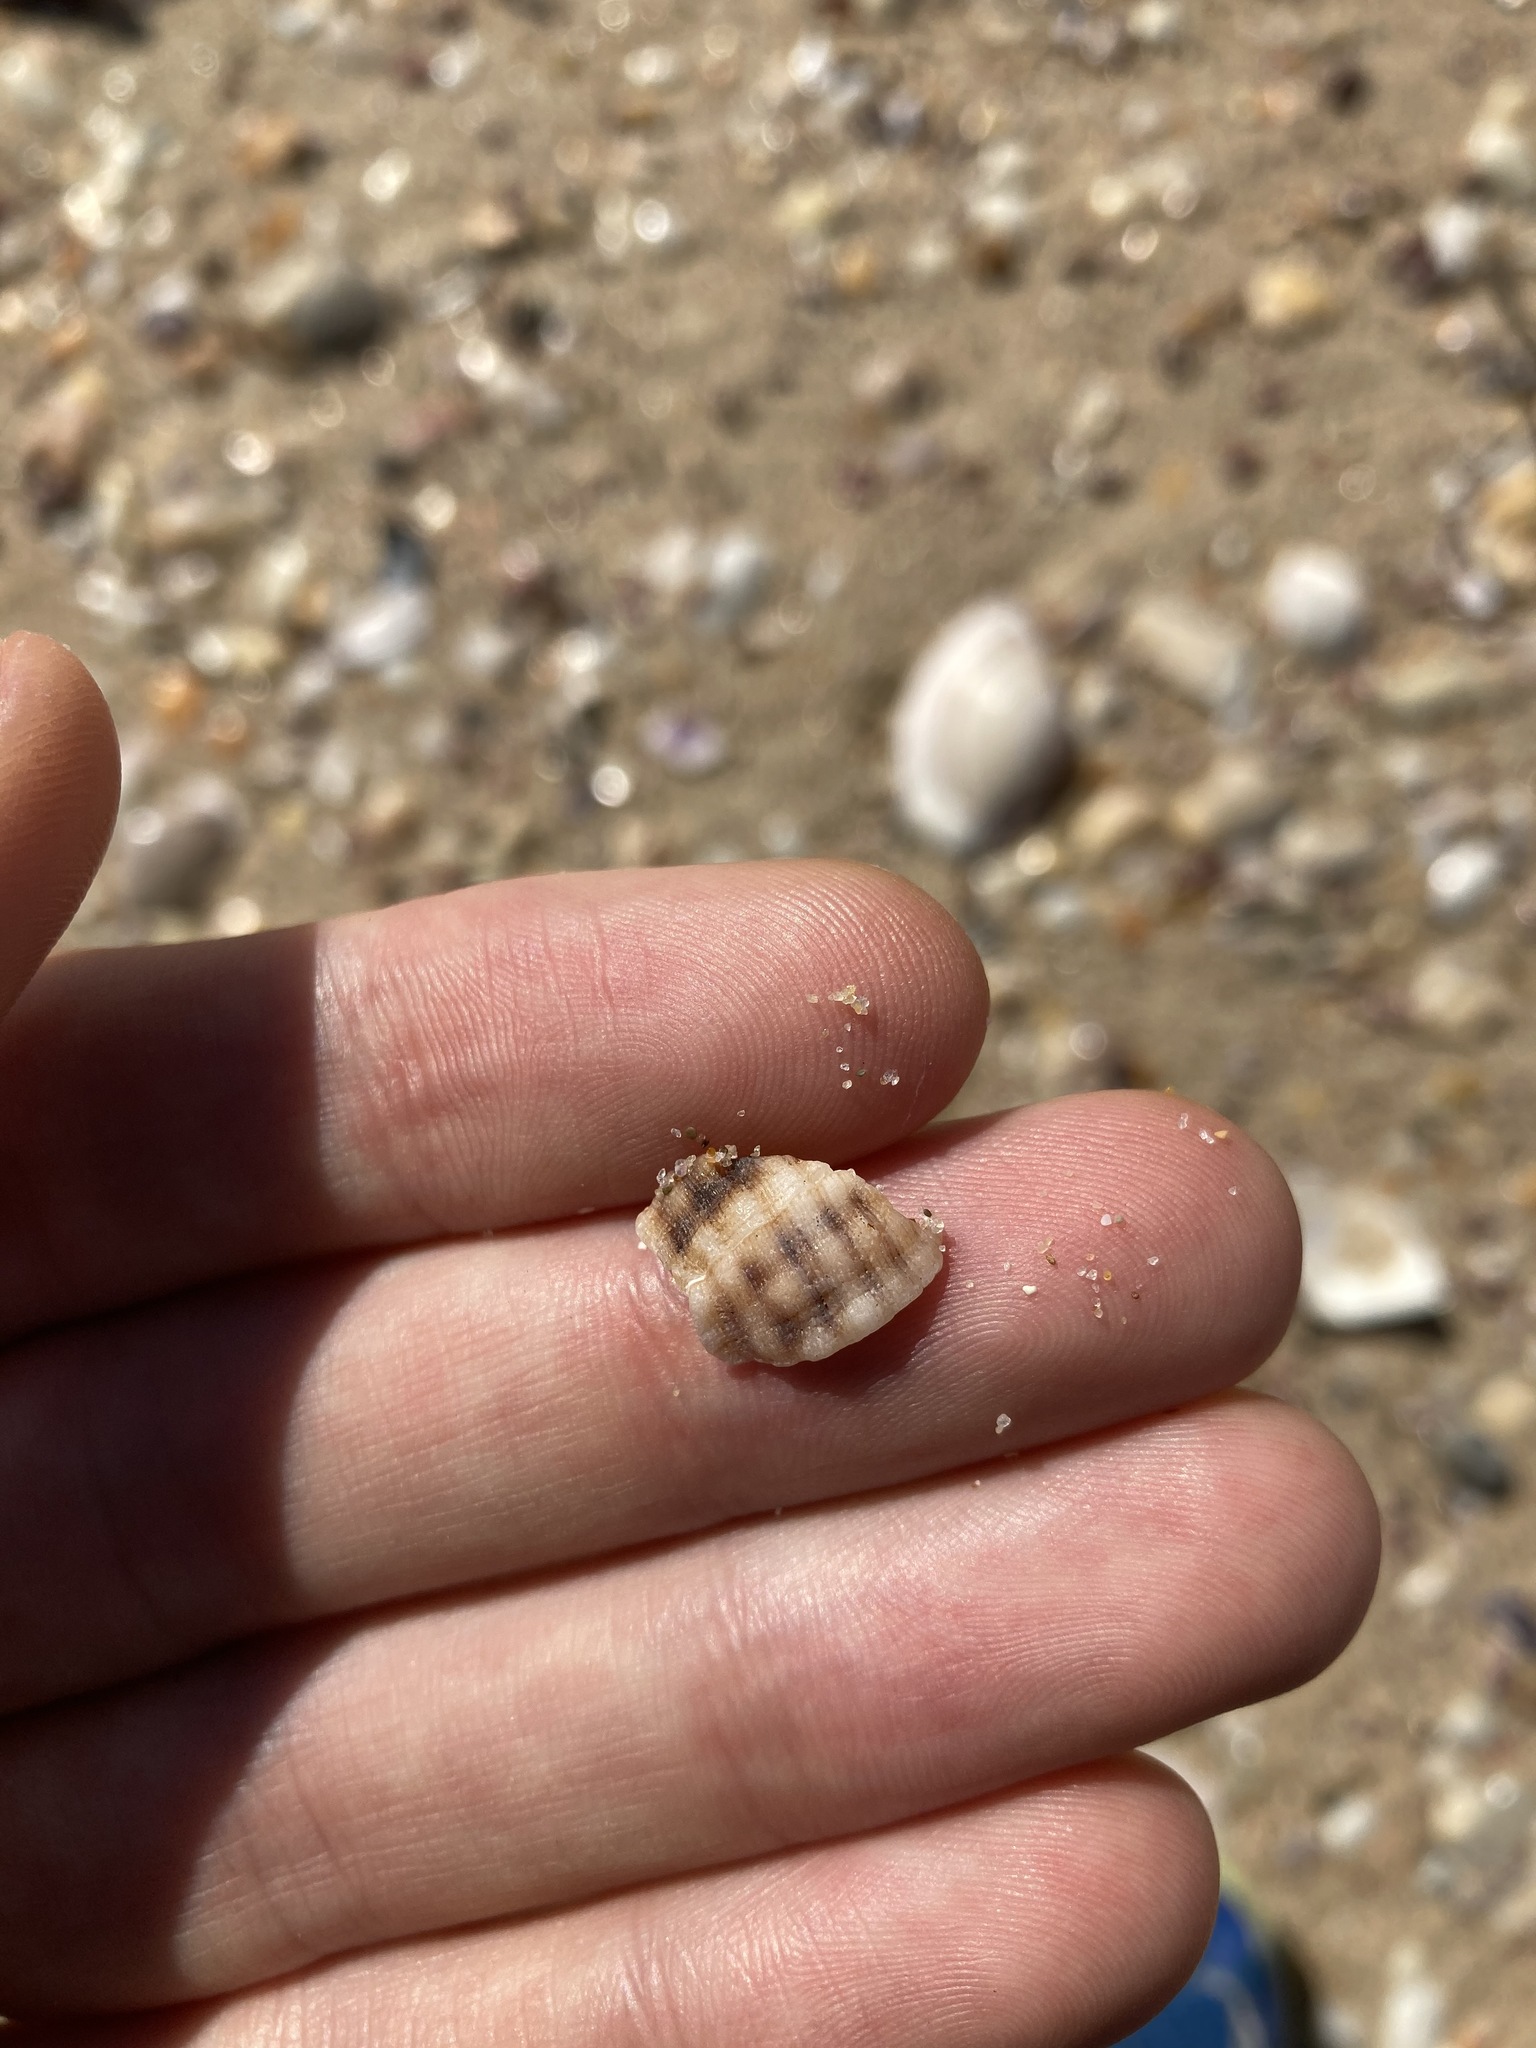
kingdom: Animalia
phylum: Mollusca
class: Gastropoda
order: Neogastropoda
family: Muricidae
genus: Agnewia
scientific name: Agnewia tritoniformis
